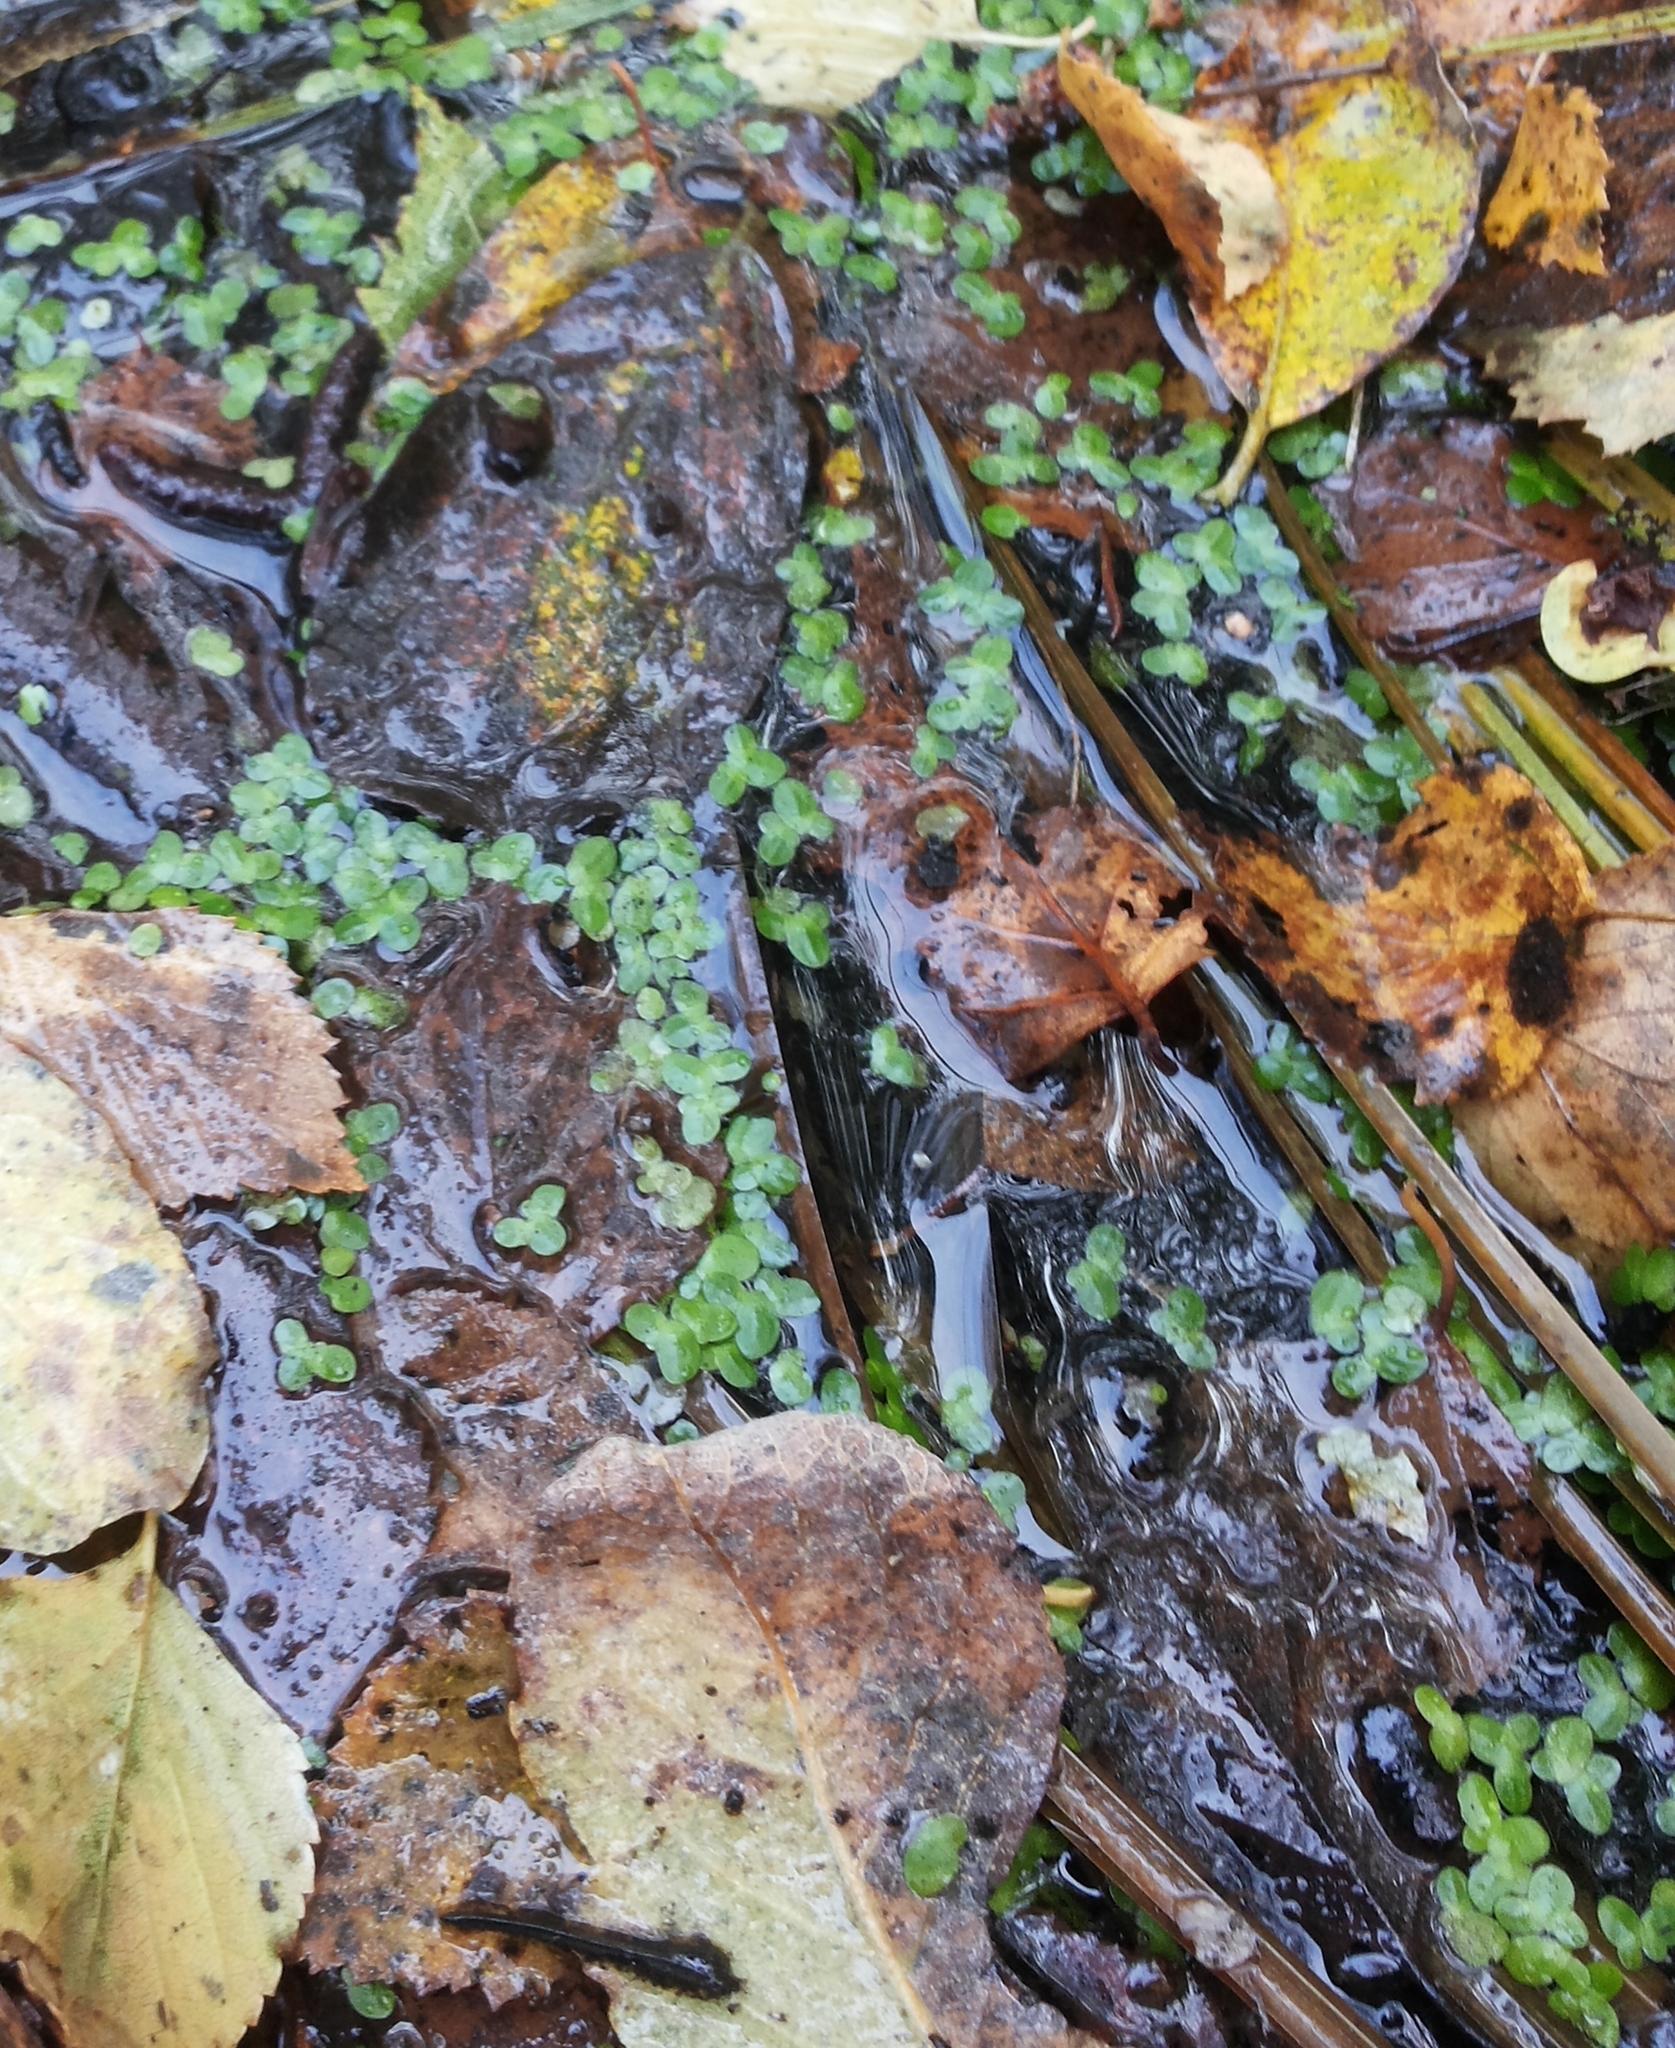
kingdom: Plantae
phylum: Tracheophyta
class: Liliopsida
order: Alismatales
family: Araceae
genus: Lemna
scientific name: Lemna minor
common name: Common duckweed
